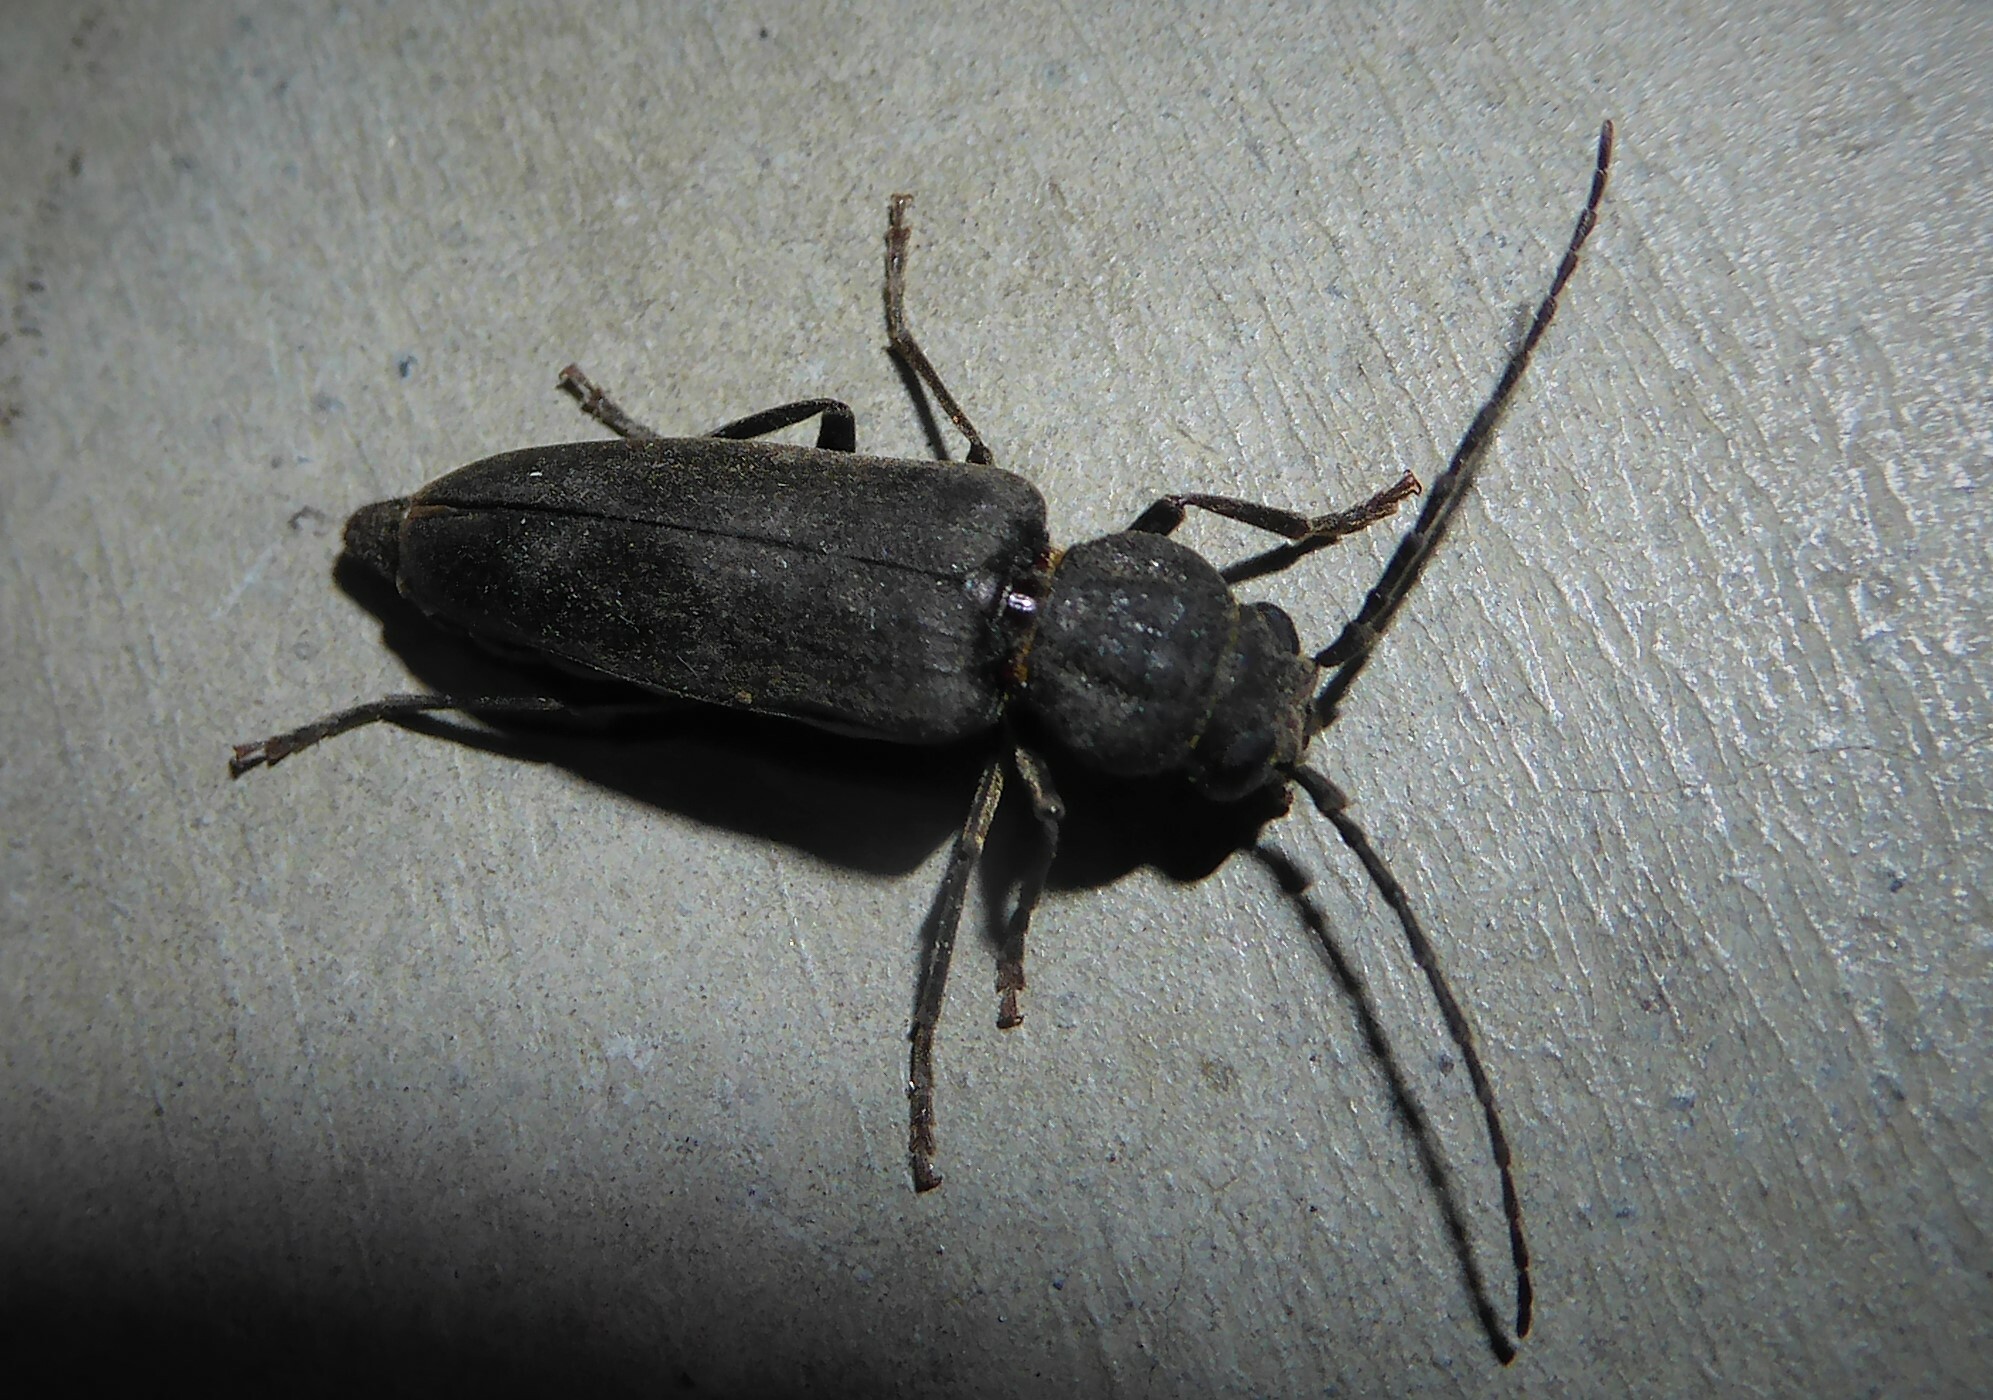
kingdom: Animalia
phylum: Arthropoda
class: Insecta
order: Coleoptera
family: Cerambycidae
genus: Arhopalus
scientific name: Arhopalus ferus
